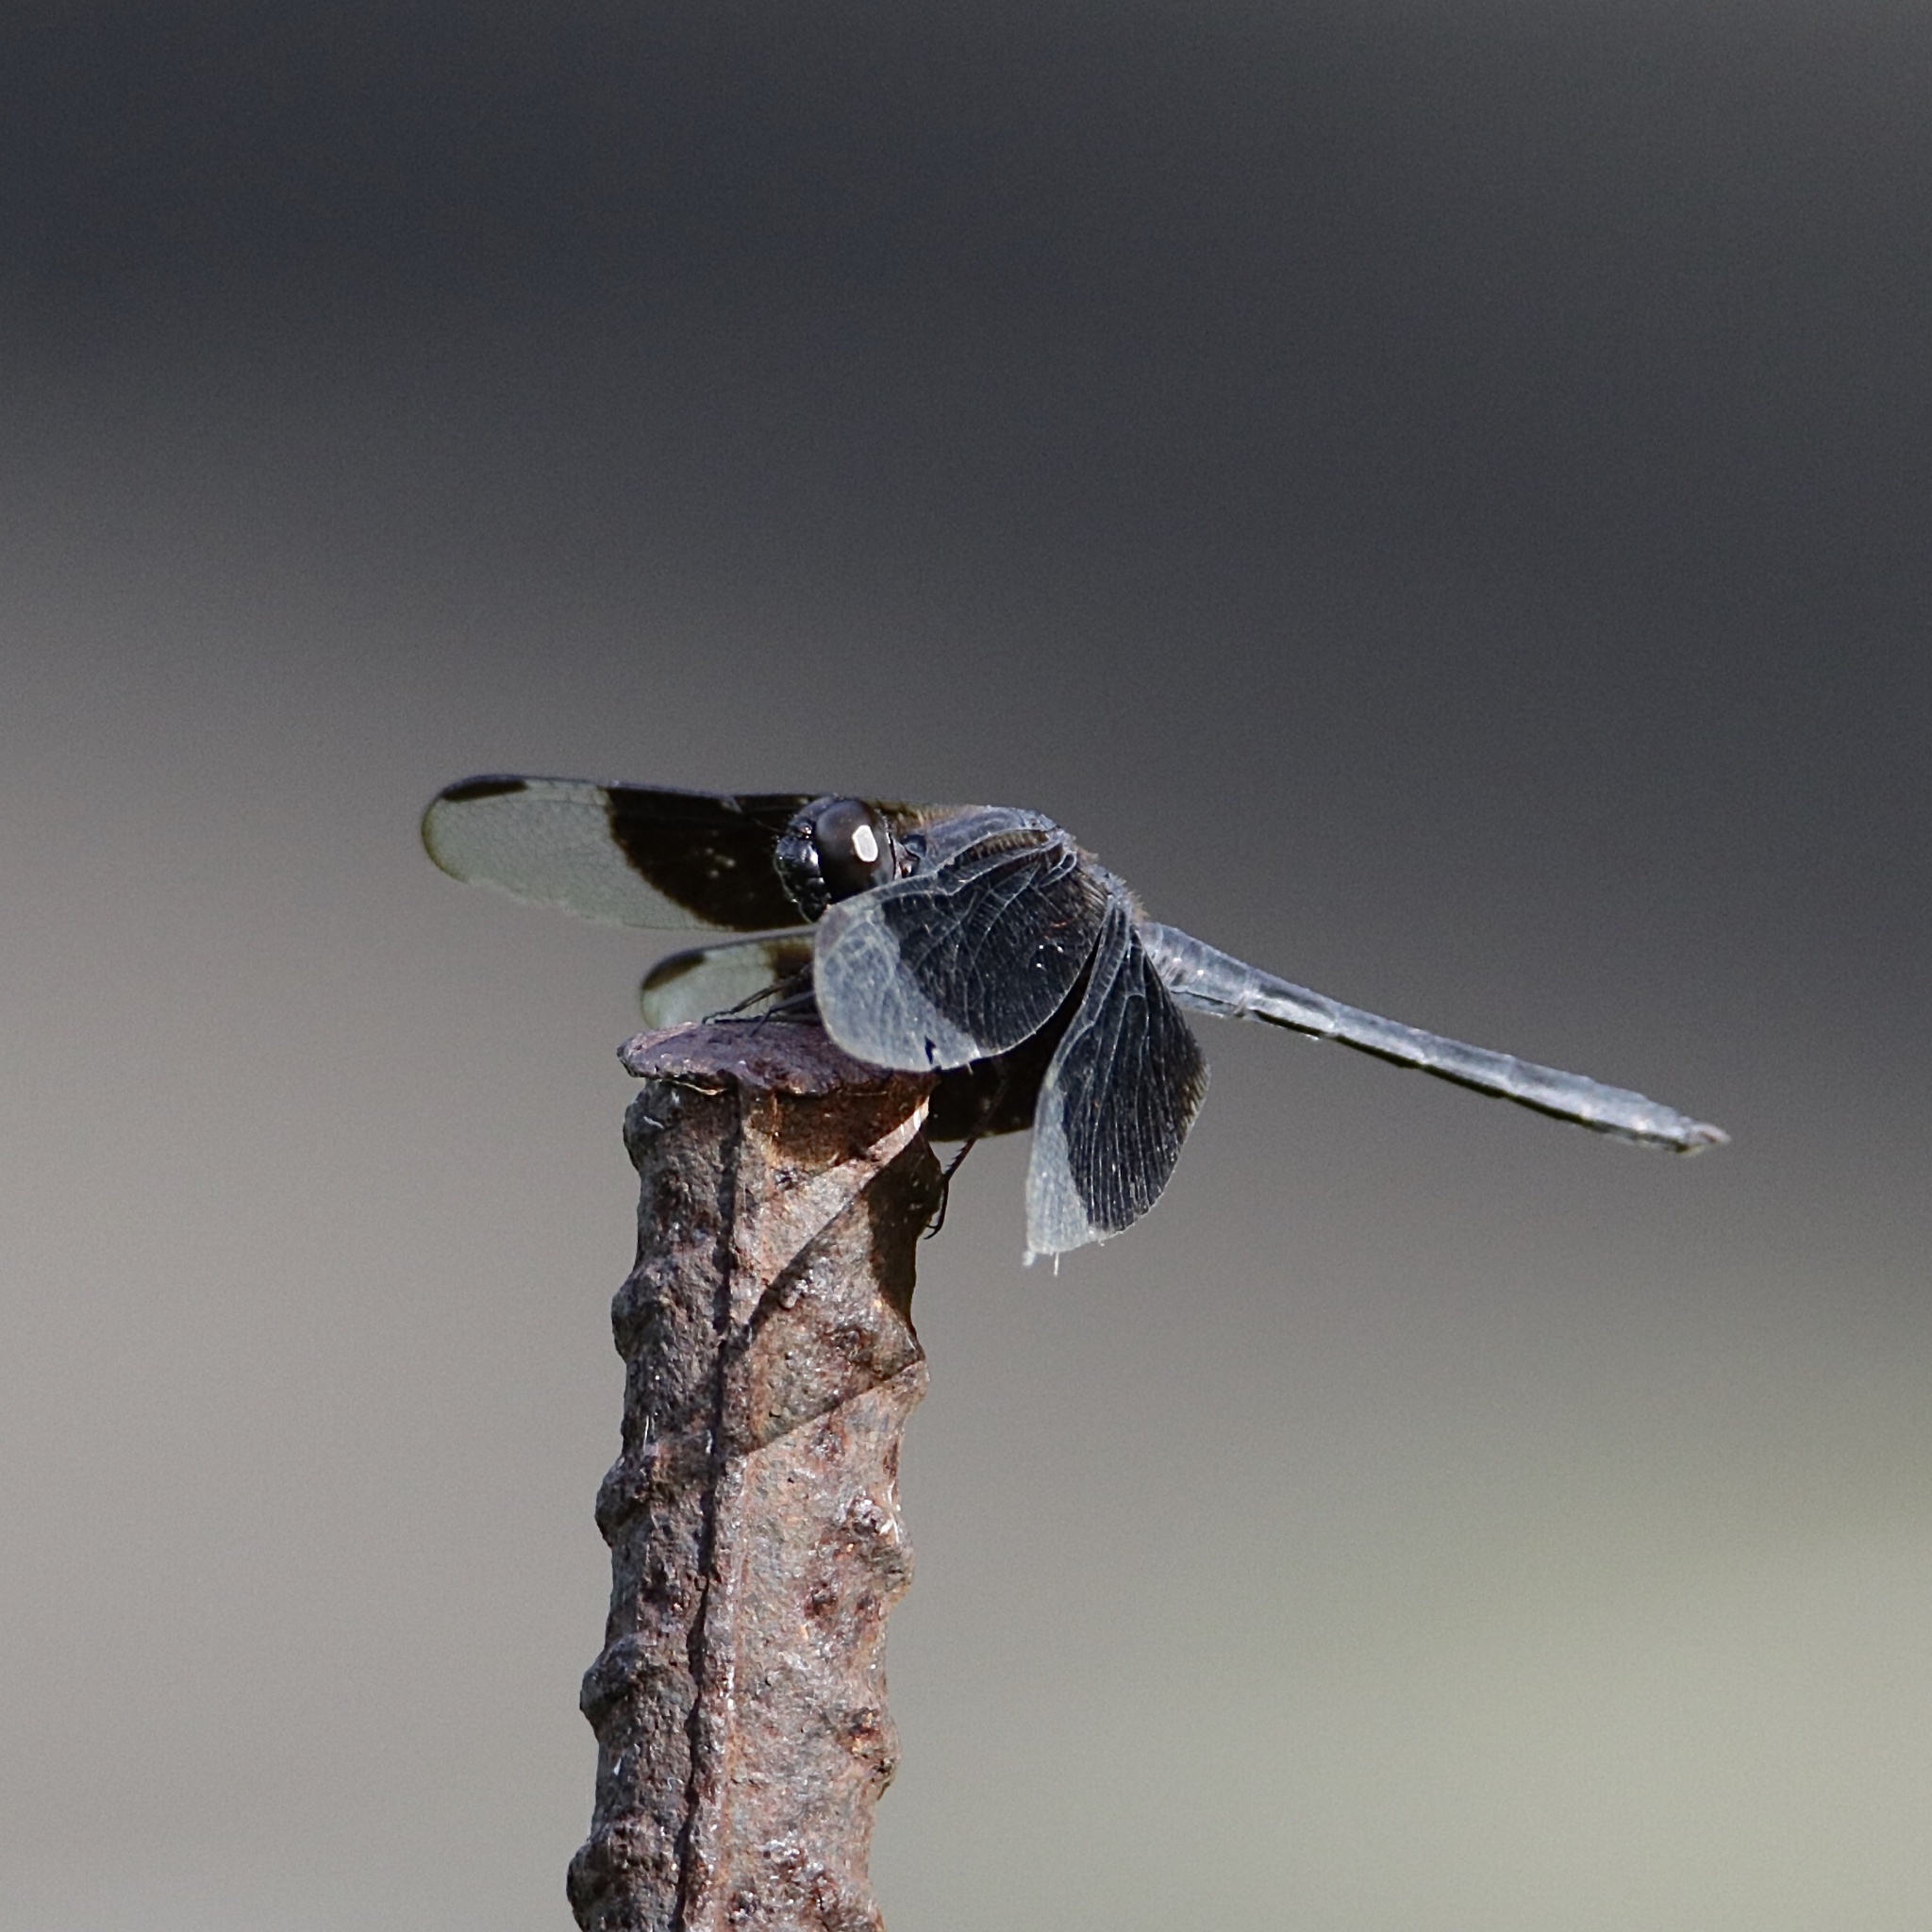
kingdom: Animalia
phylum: Arthropoda
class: Insecta
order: Odonata
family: Libellulidae
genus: Erythrodiplax
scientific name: Erythrodiplax funerea
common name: Black-winged dragonlet
